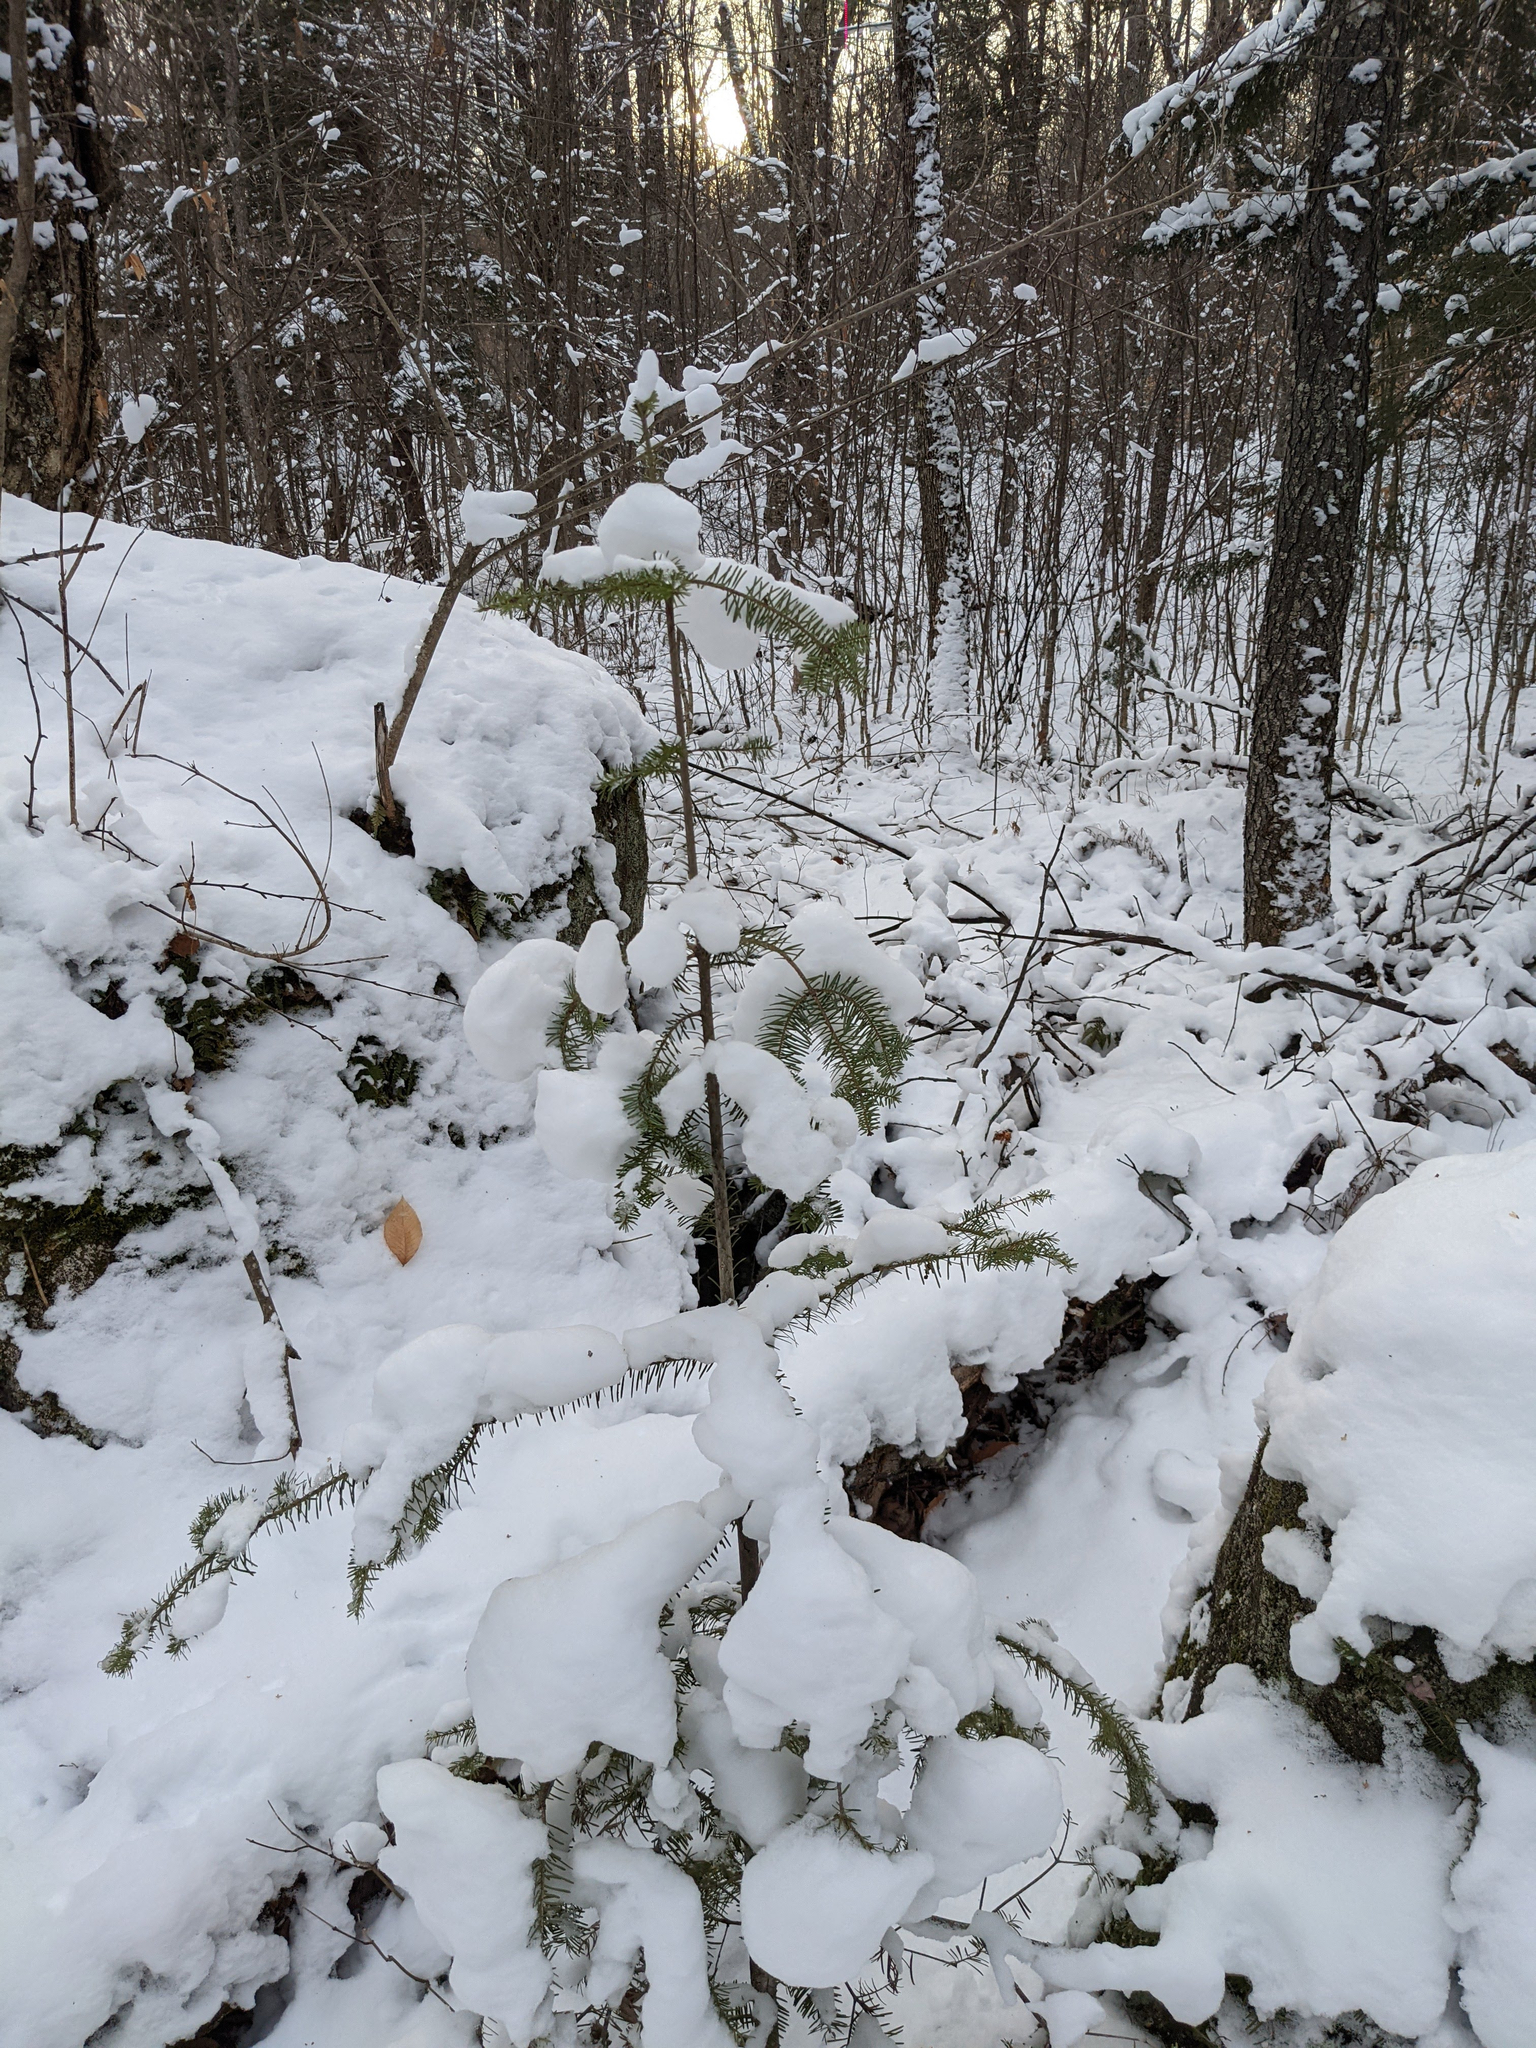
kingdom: Plantae
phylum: Tracheophyta
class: Pinopsida
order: Pinales
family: Pinaceae
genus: Abies
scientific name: Abies balsamea
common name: Balsam fir
